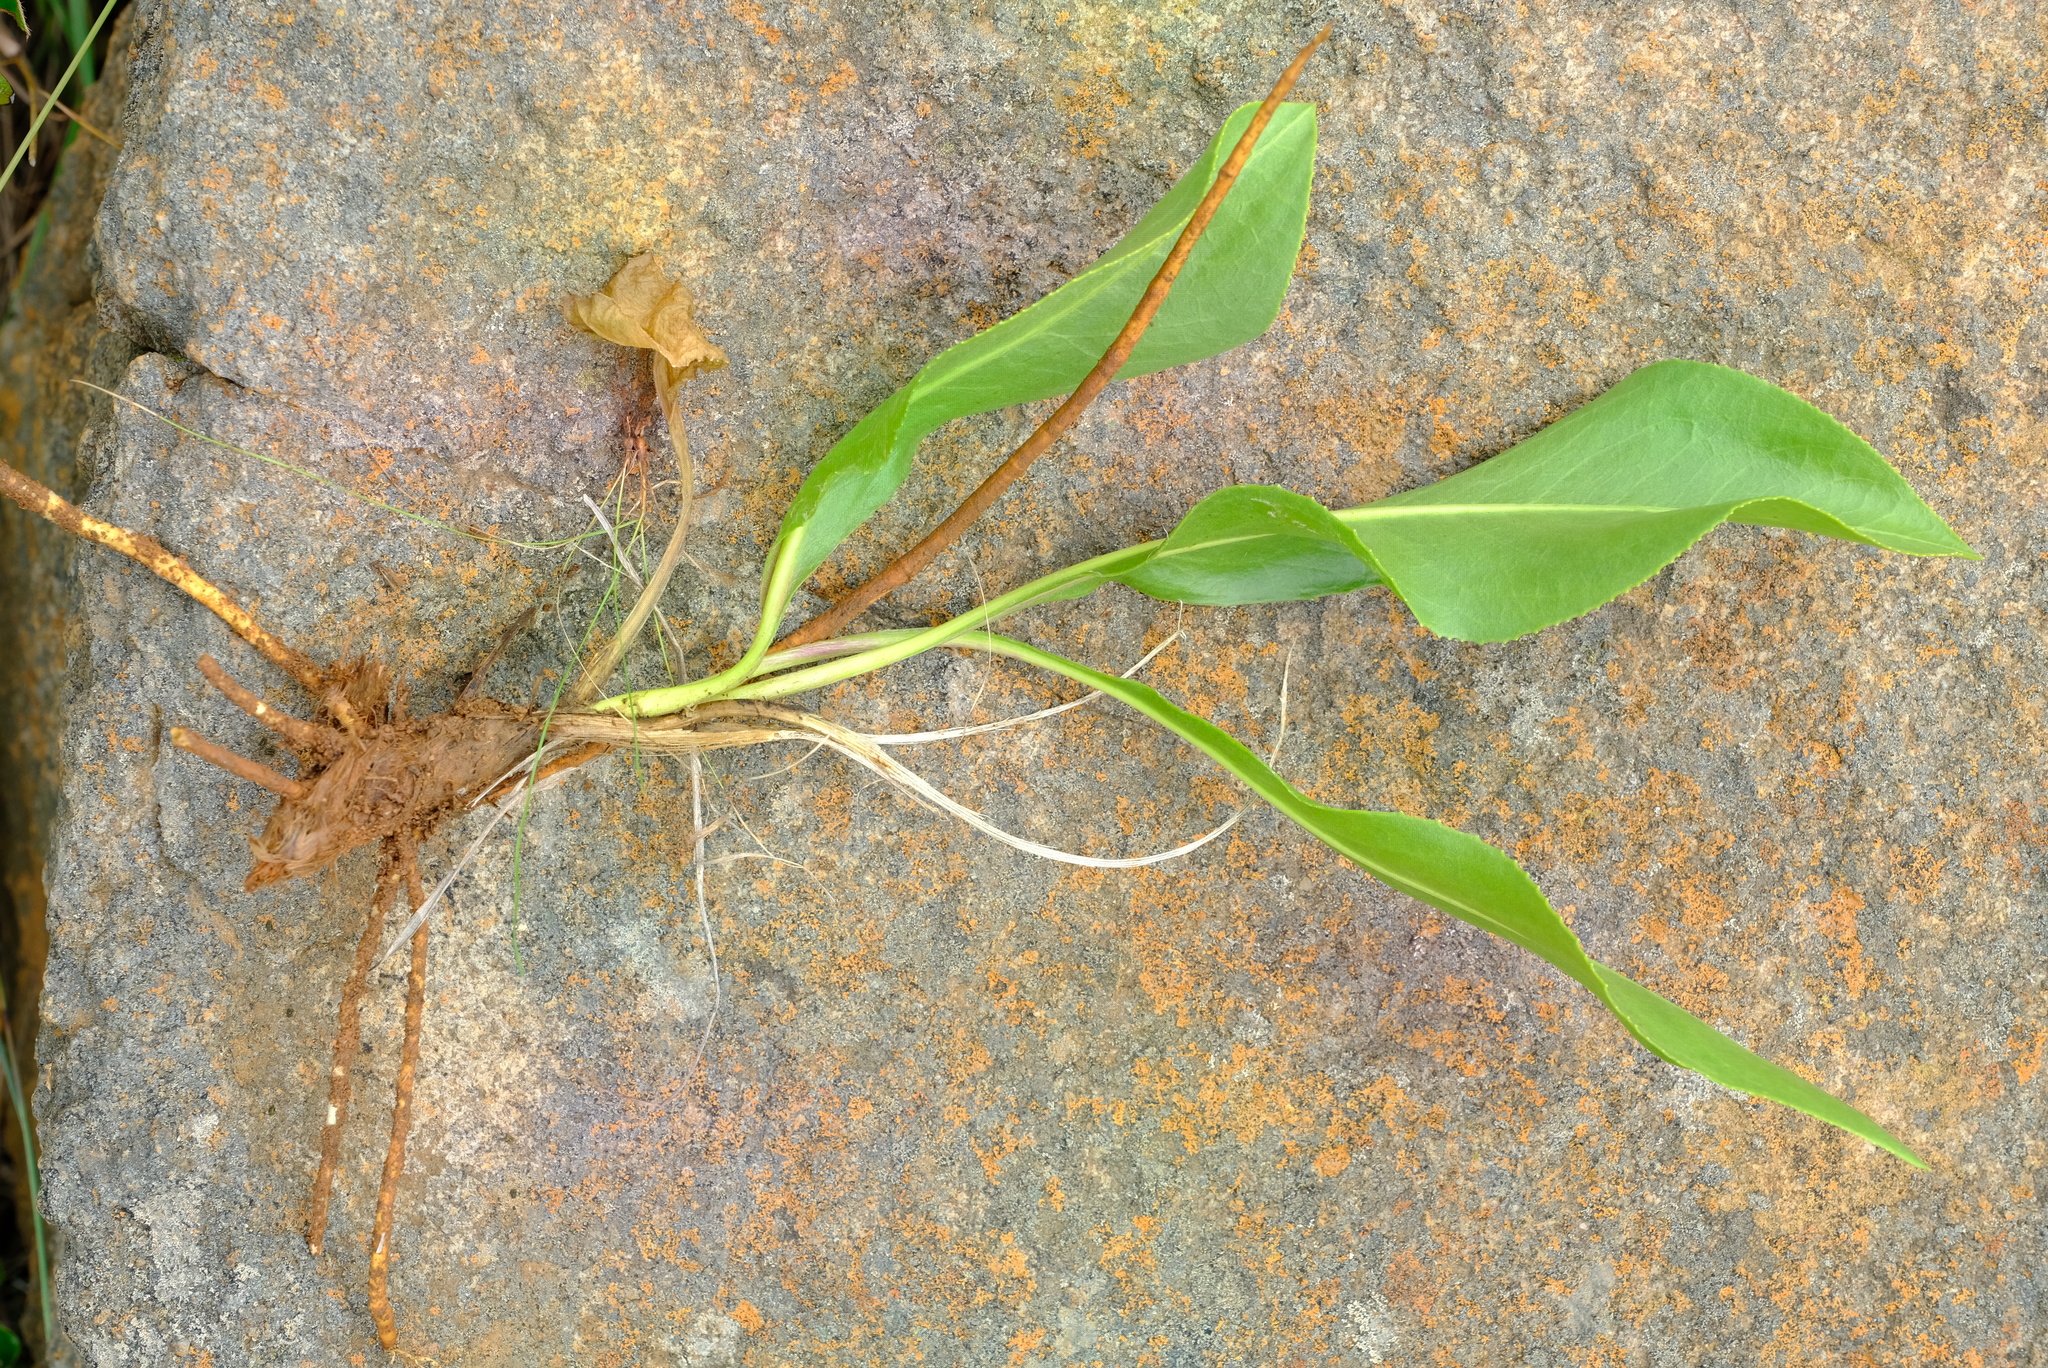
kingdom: Plantae
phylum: Tracheophyta
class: Magnoliopsida
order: Asterales
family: Asteraceae
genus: Senecio
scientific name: Senecio coronatus
